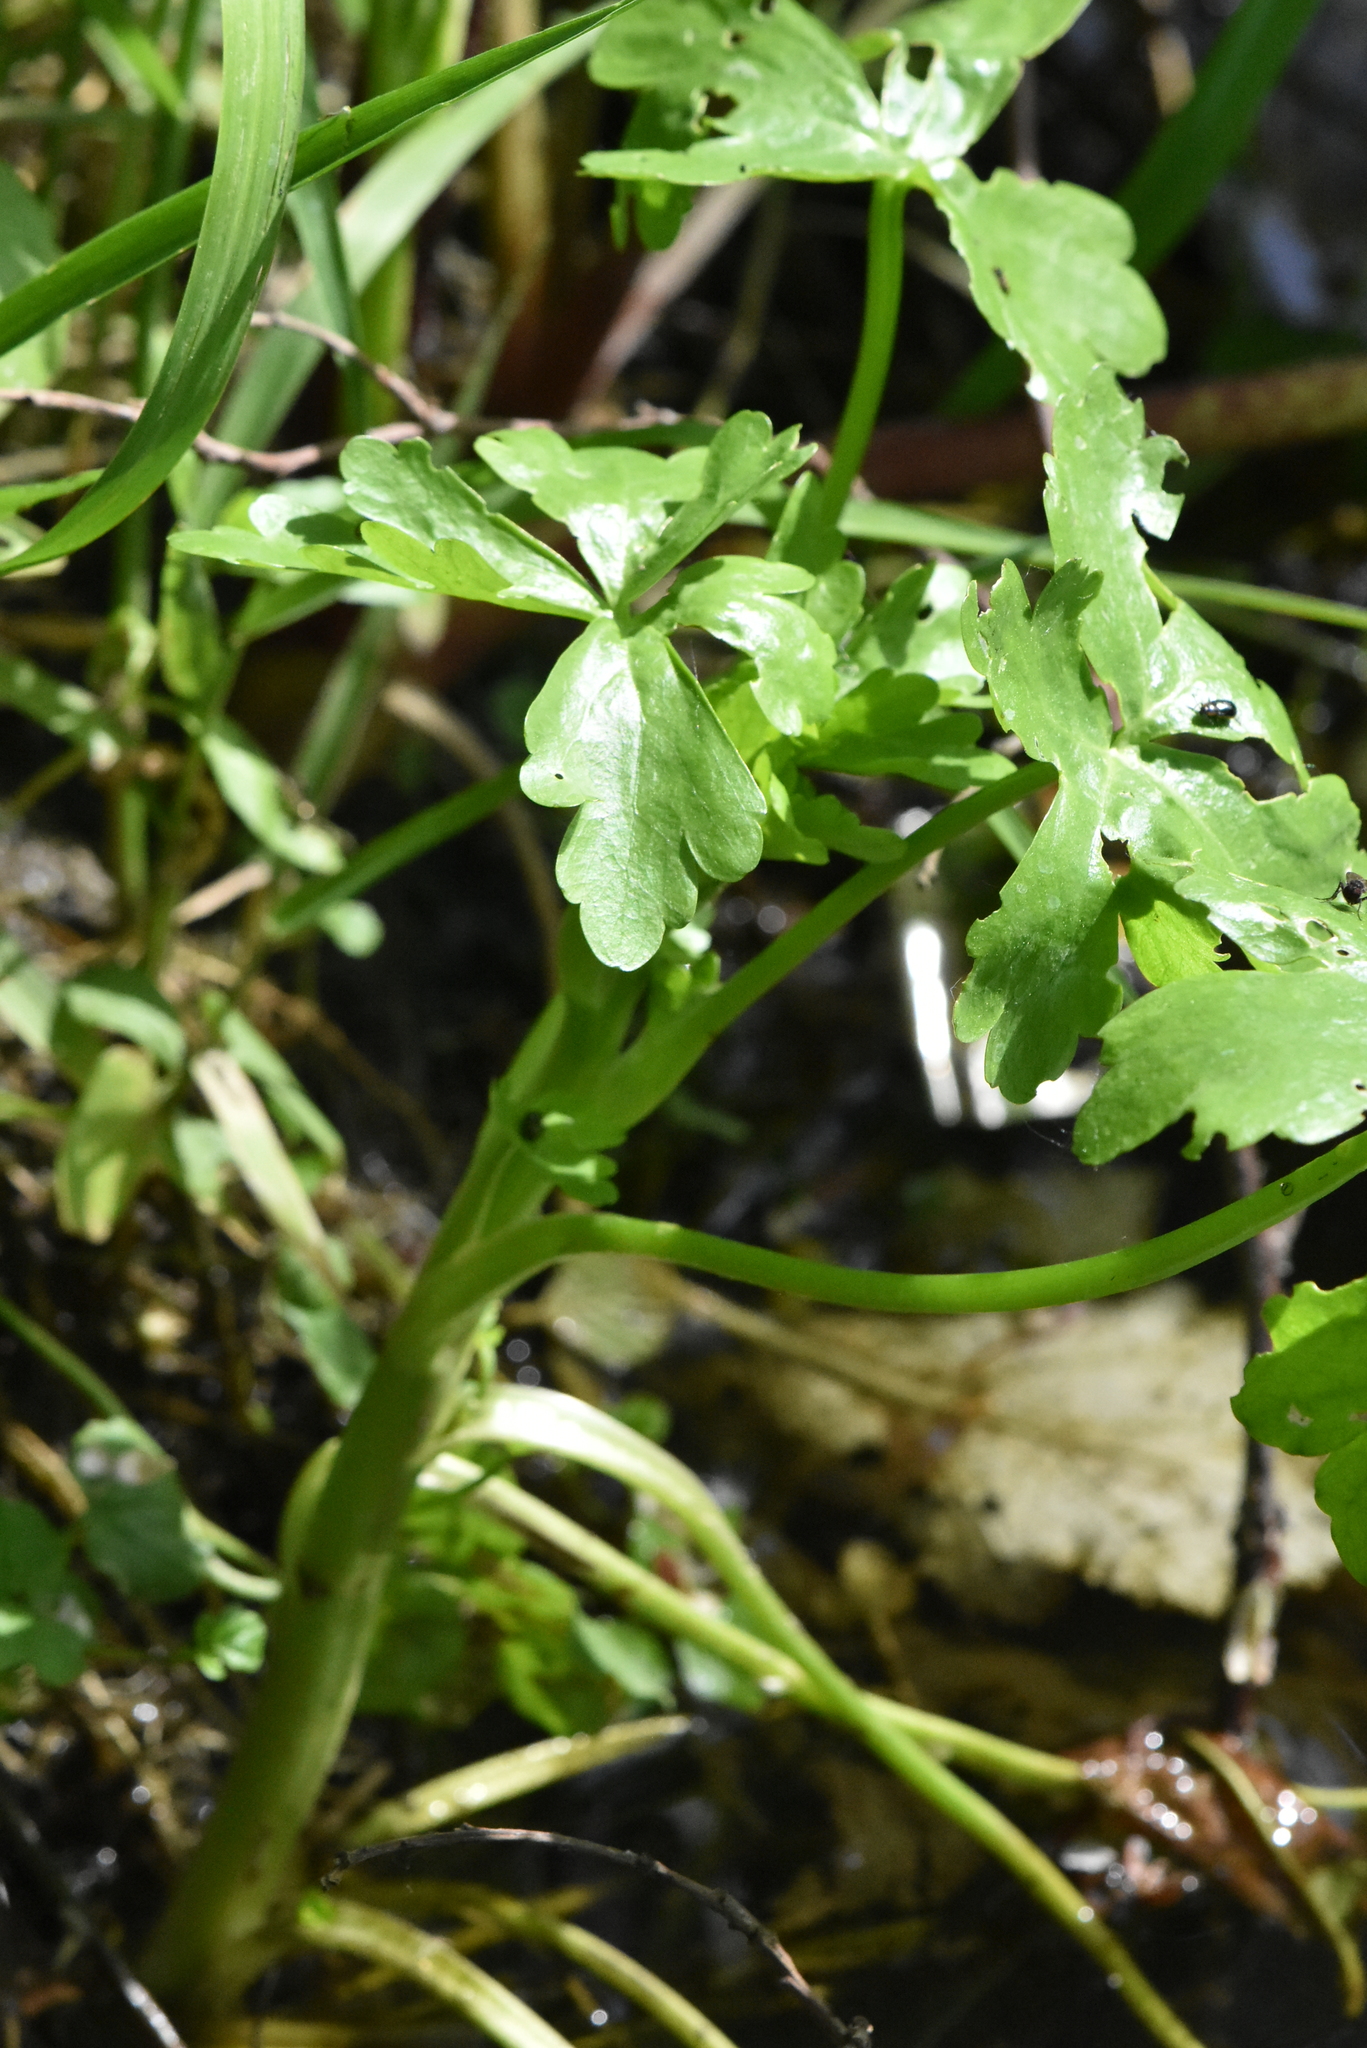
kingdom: Plantae
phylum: Tracheophyta
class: Magnoliopsida
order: Ranunculales
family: Ranunculaceae
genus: Ranunculus
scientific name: Ranunculus sceleratus
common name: Celery-leaved buttercup
